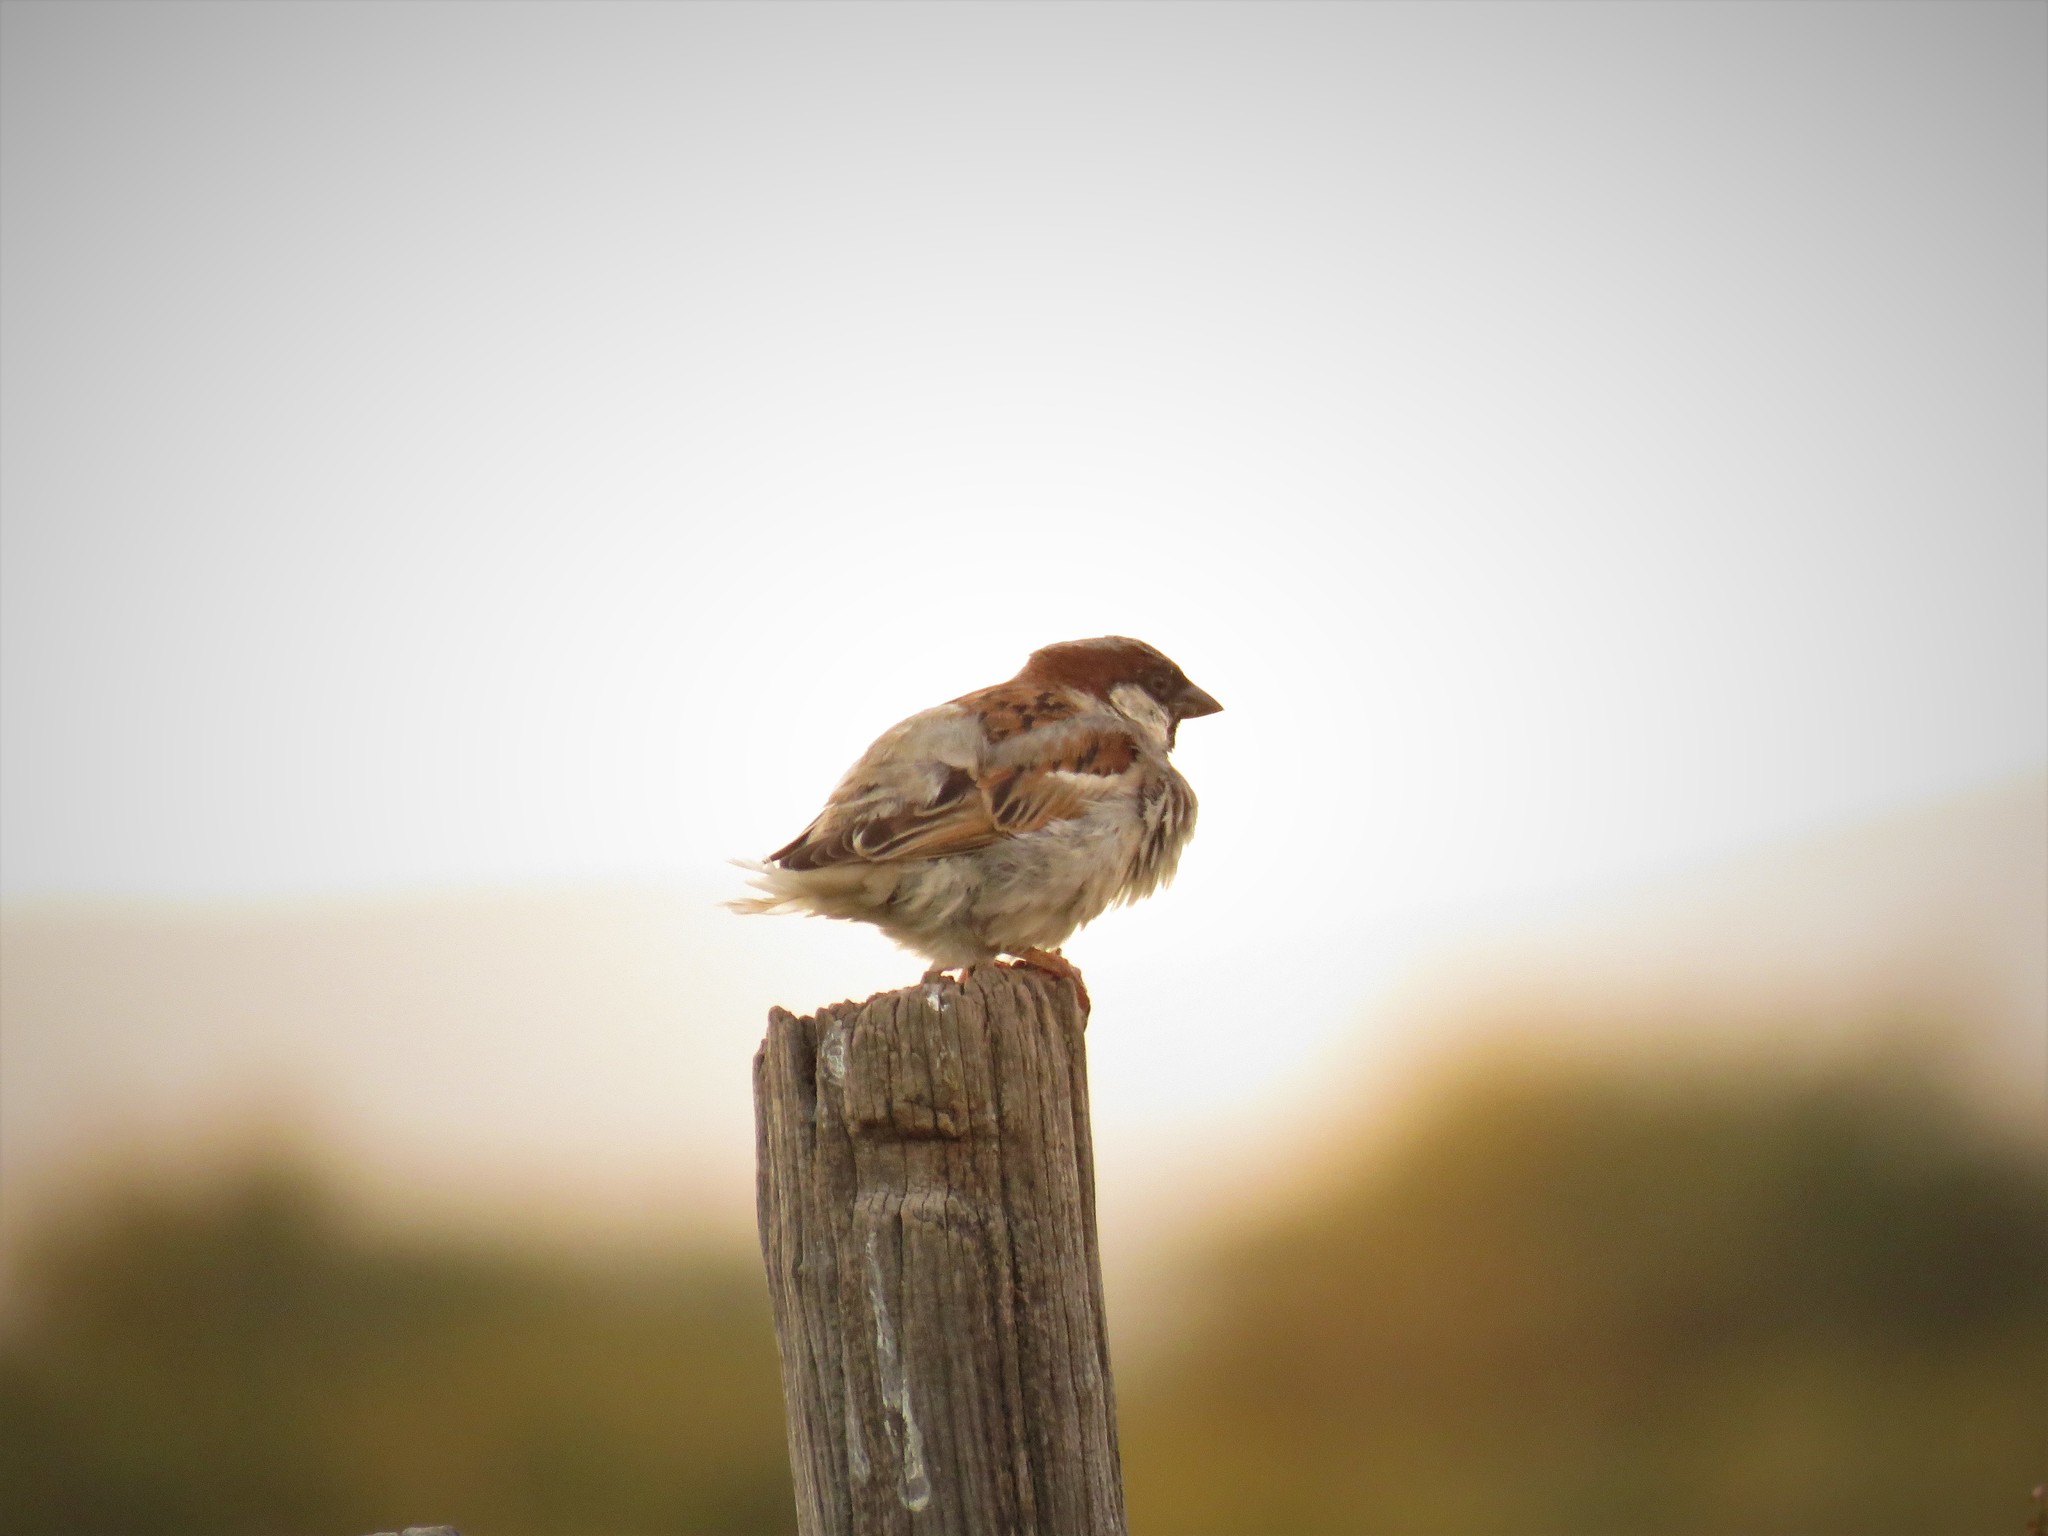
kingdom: Animalia
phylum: Chordata
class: Aves
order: Passeriformes
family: Passeridae
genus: Passer
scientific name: Passer domesticus
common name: House sparrow
